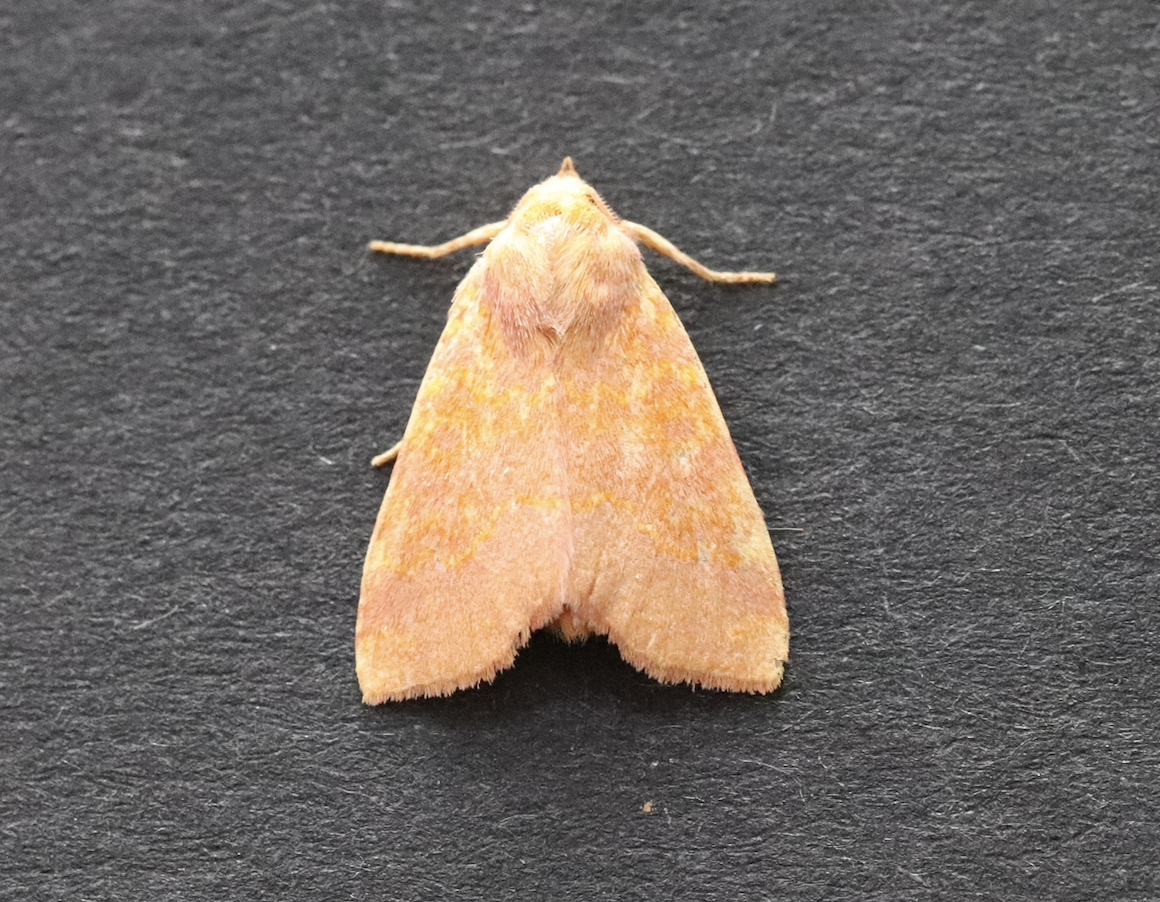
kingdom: Animalia
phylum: Arthropoda
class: Insecta
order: Lepidoptera
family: Noctuidae
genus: Tiliacea
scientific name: Tiliacea aurago
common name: Barred sallow
